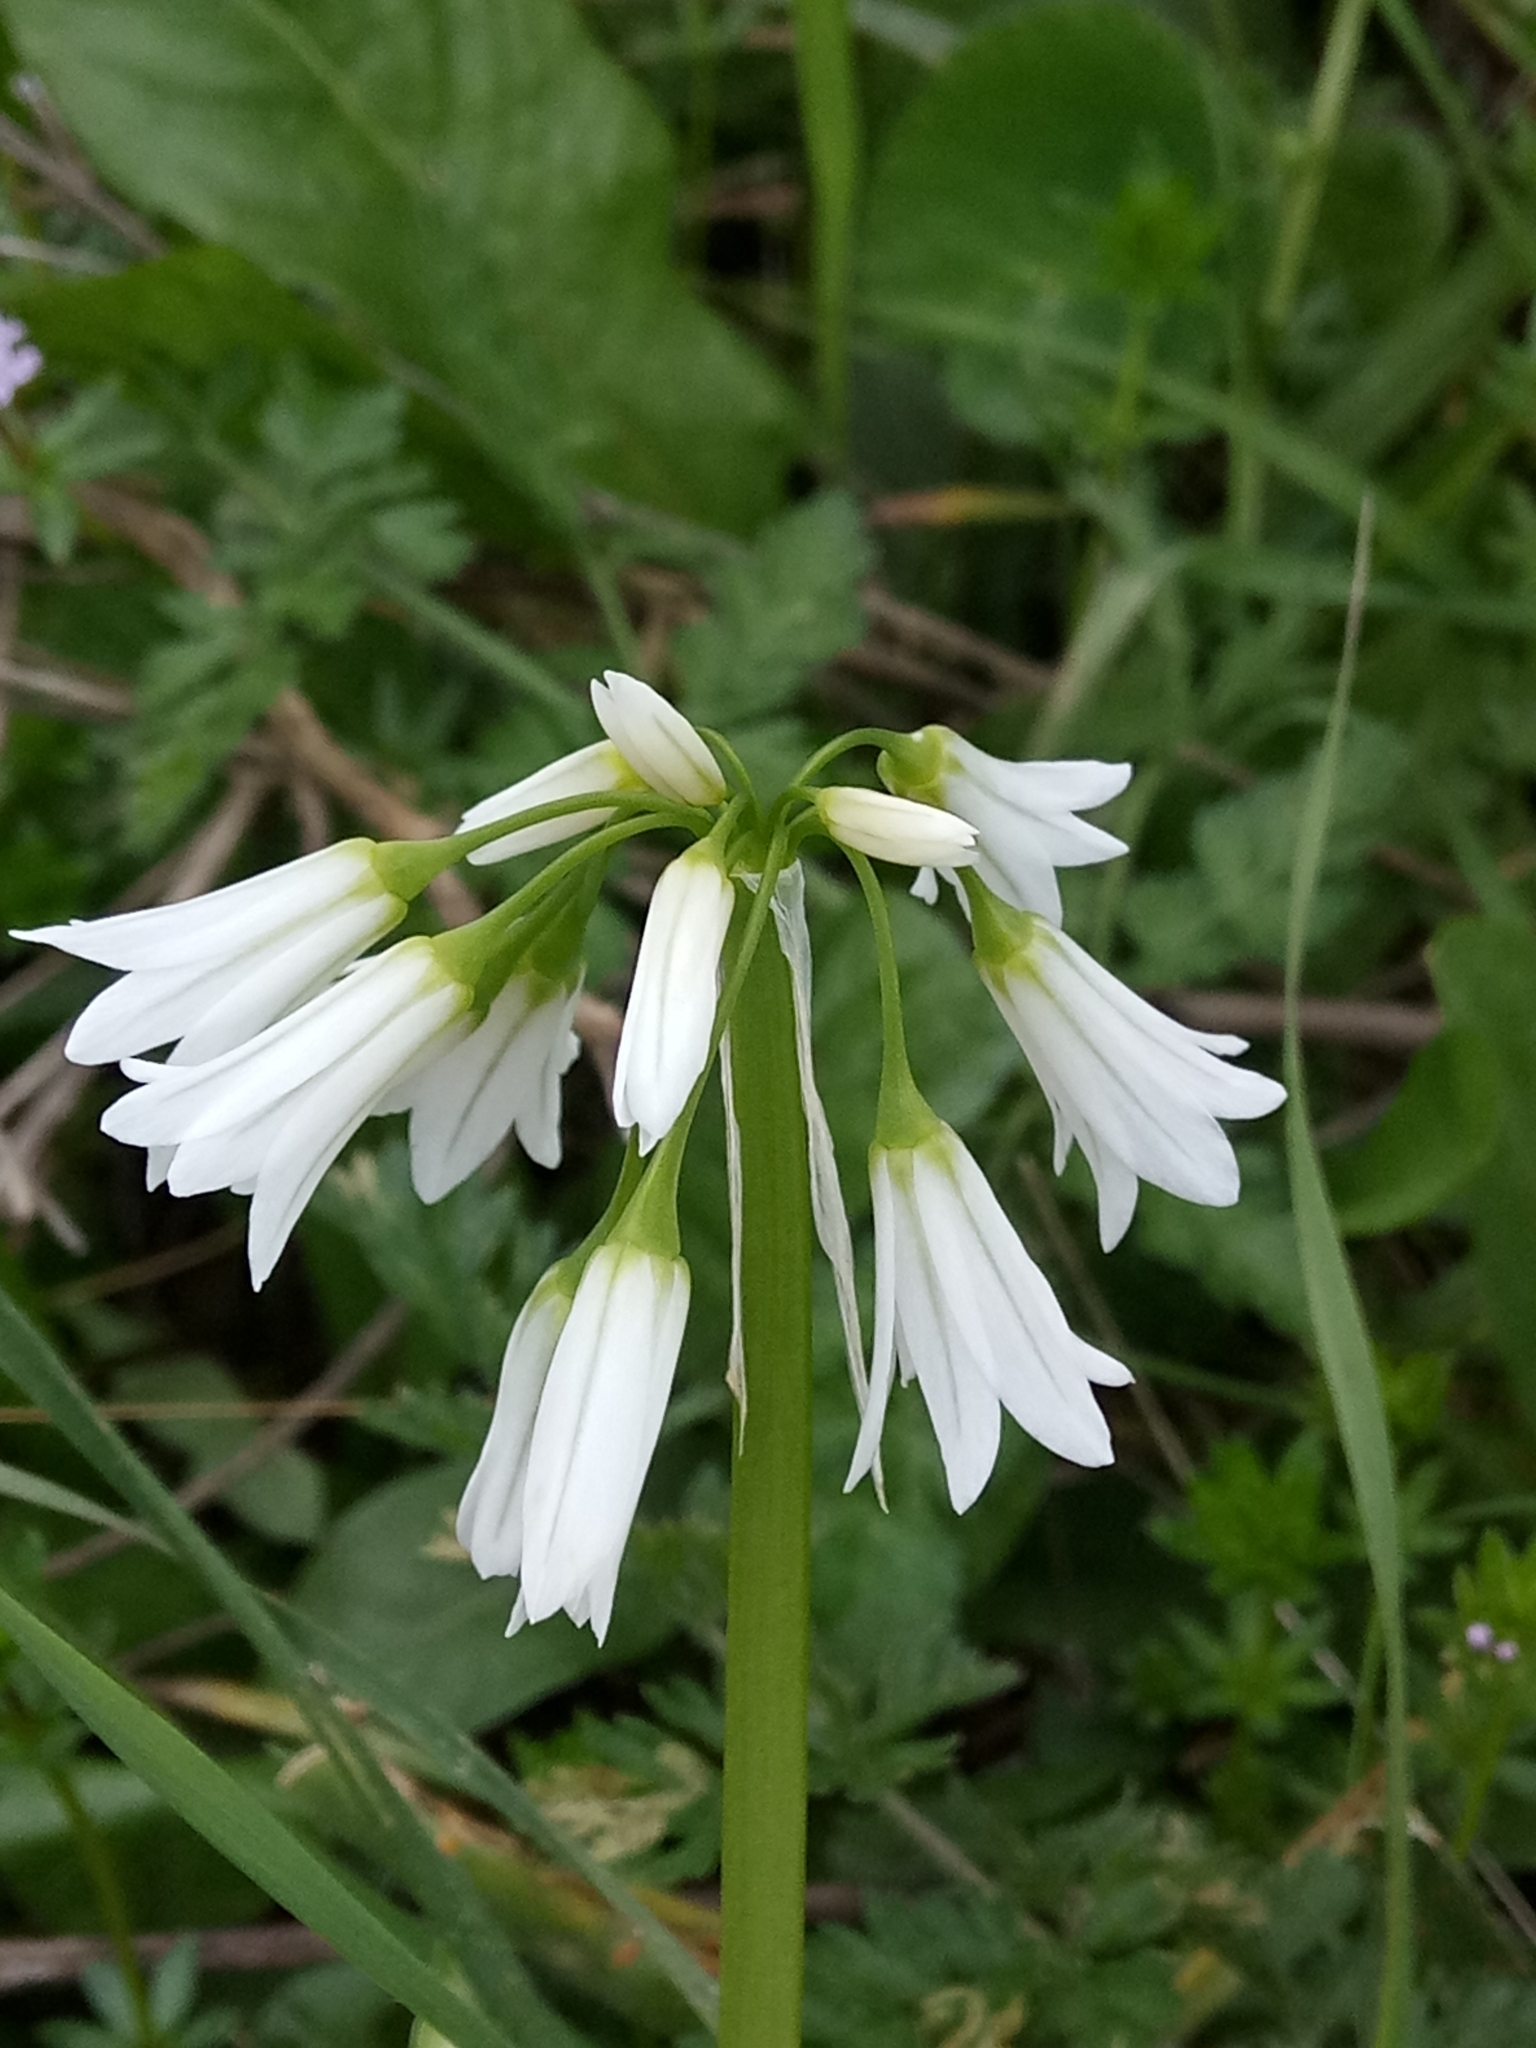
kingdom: Plantae
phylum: Tracheophyta
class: Liliopsida
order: Asparagales
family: Amaryllidaceae
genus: Allium
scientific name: Allium triquetrum
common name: Three-cornered garlic
